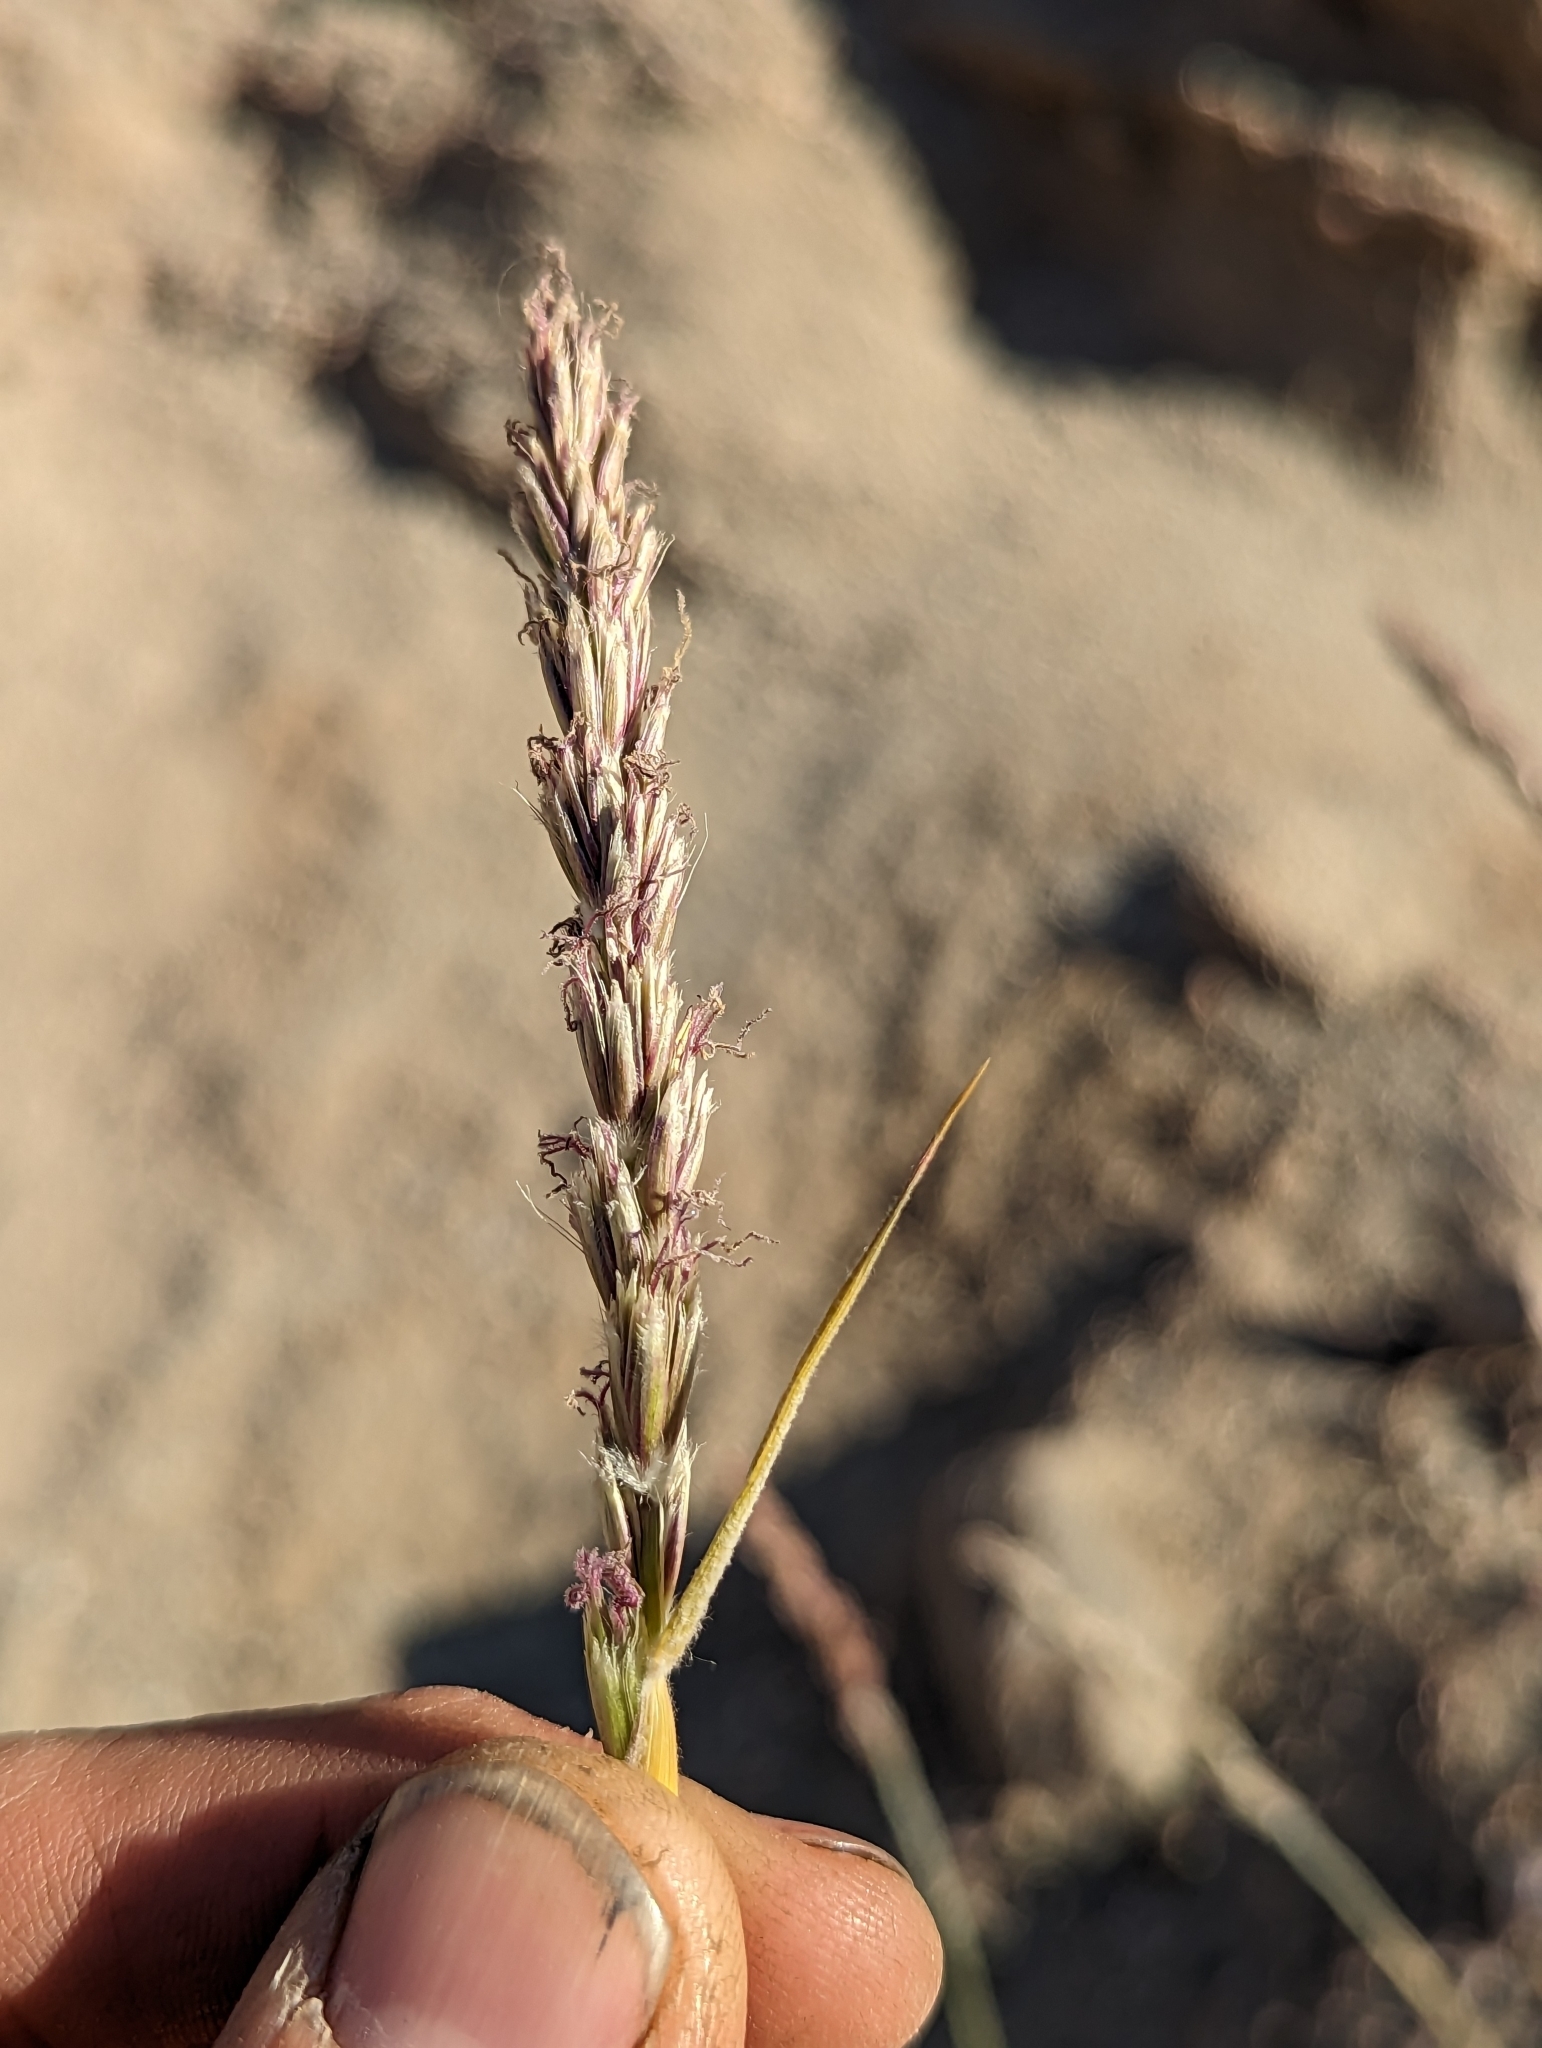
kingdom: Plantae
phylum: Tracheophyta
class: Liliopsida
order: Poales
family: Poaceae
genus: Hilaria
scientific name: Hilaria rigida
